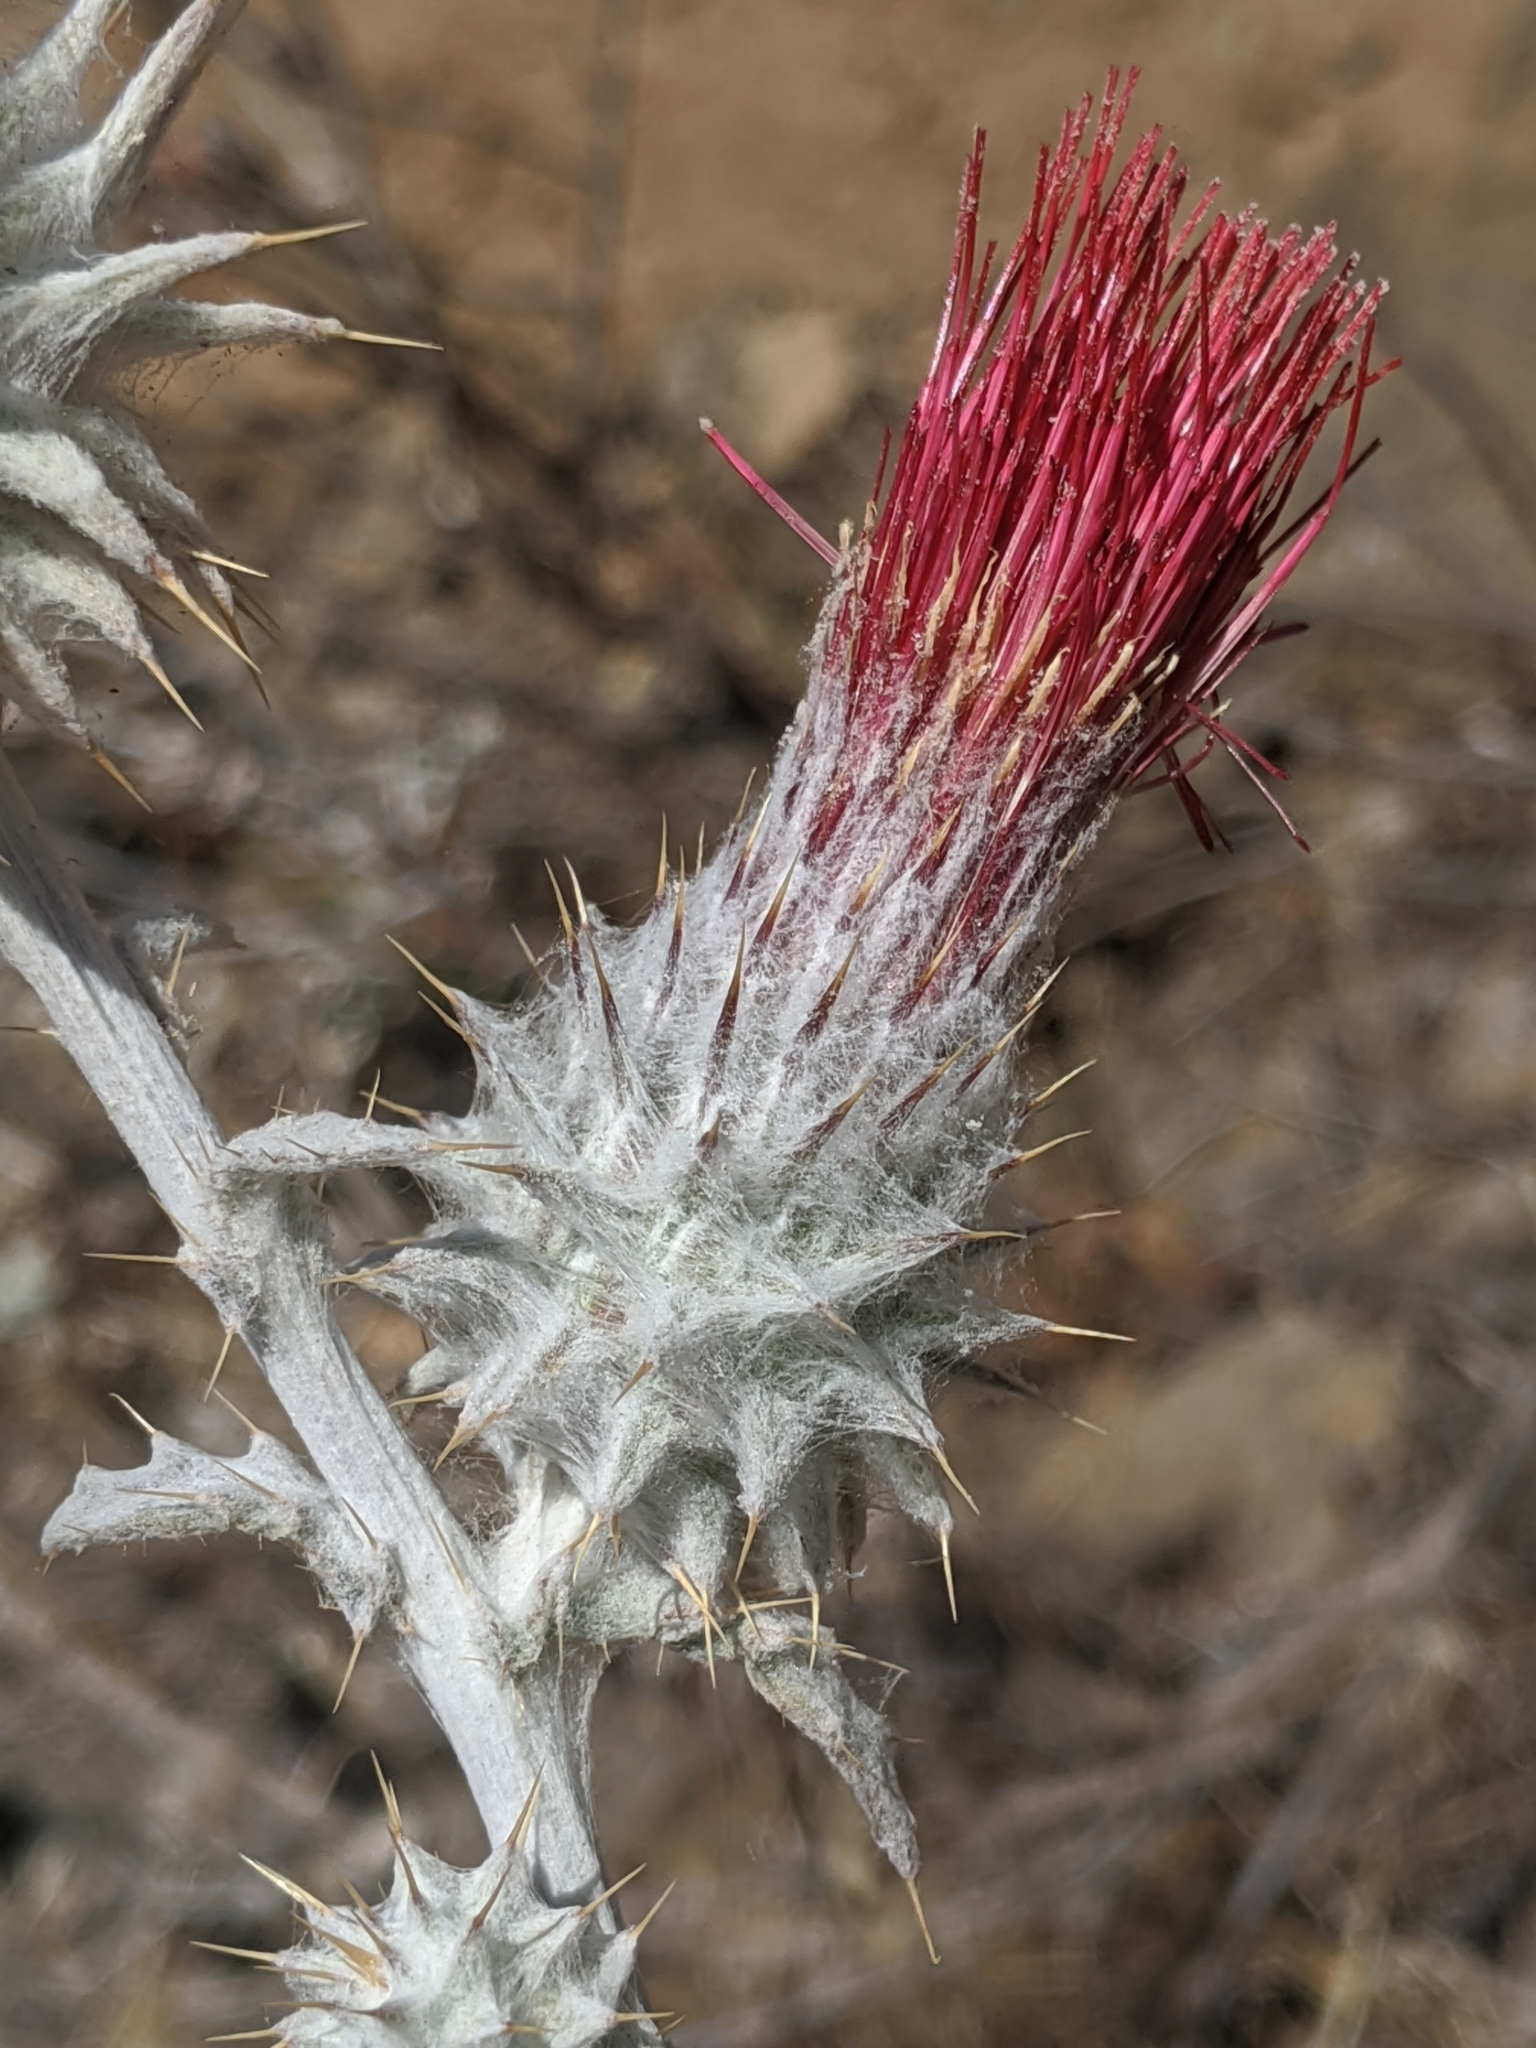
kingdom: Plantae
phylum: Tracheophyta
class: Magnoliopsida
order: Asterales
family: Asteraceae
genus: Cirsium
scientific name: Cirsium occidentale
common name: Western thistle
